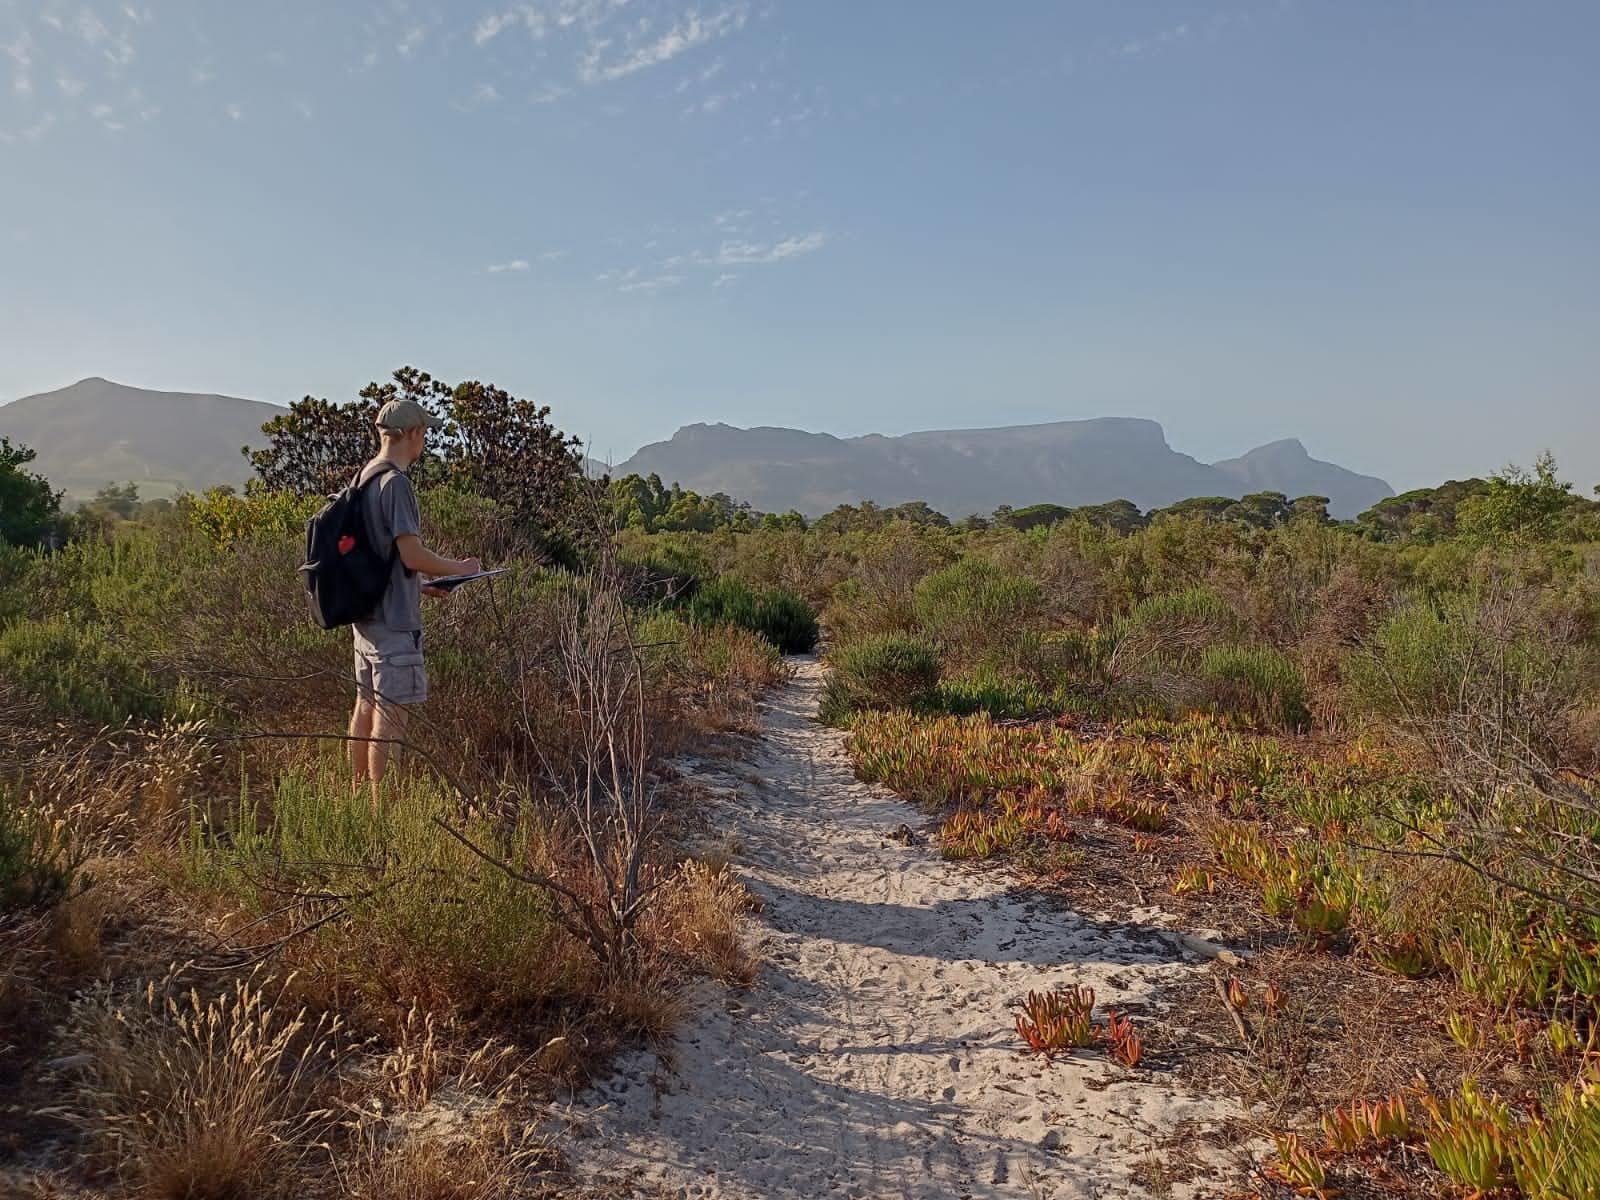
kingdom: Plantae
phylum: Tracheophyta
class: Magnoliopsida
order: Proteales
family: Proteaceae
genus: Leucadendron
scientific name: Leucadendron laureolum
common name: Golden sunshinebush
